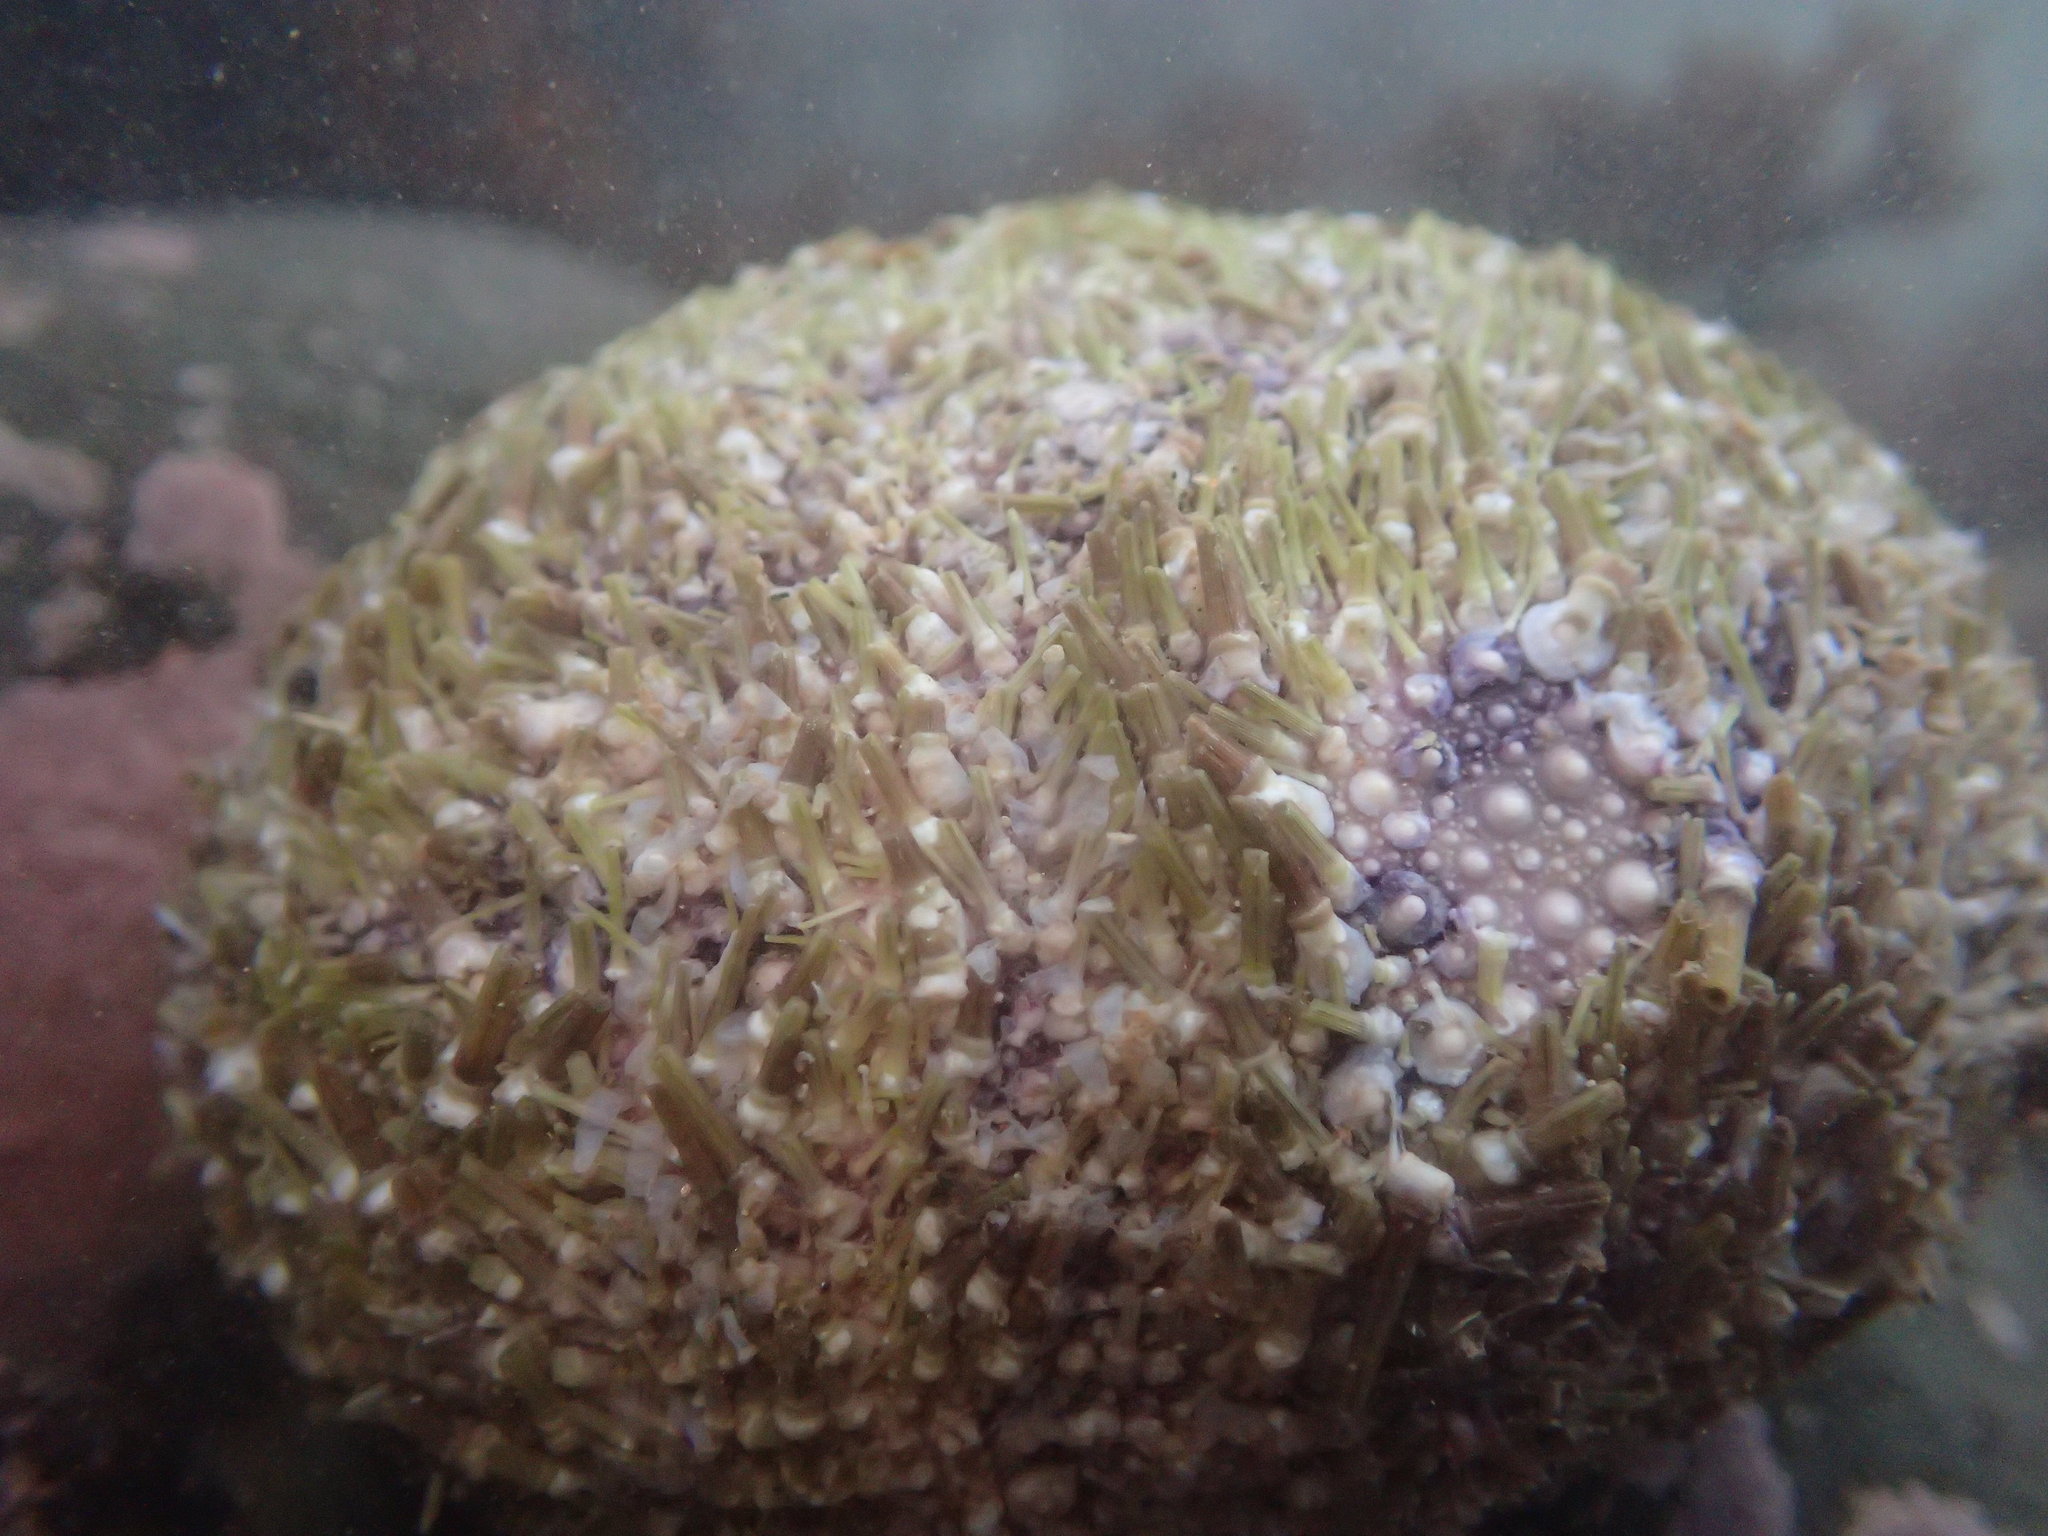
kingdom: Animalia
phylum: Echinodermata
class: Echinoidea
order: Camarodonta
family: Strongylocentrotidae
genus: Strongylocentrotus
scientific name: Strongylocentrotus droebachiensis
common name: Northern sea urchin
